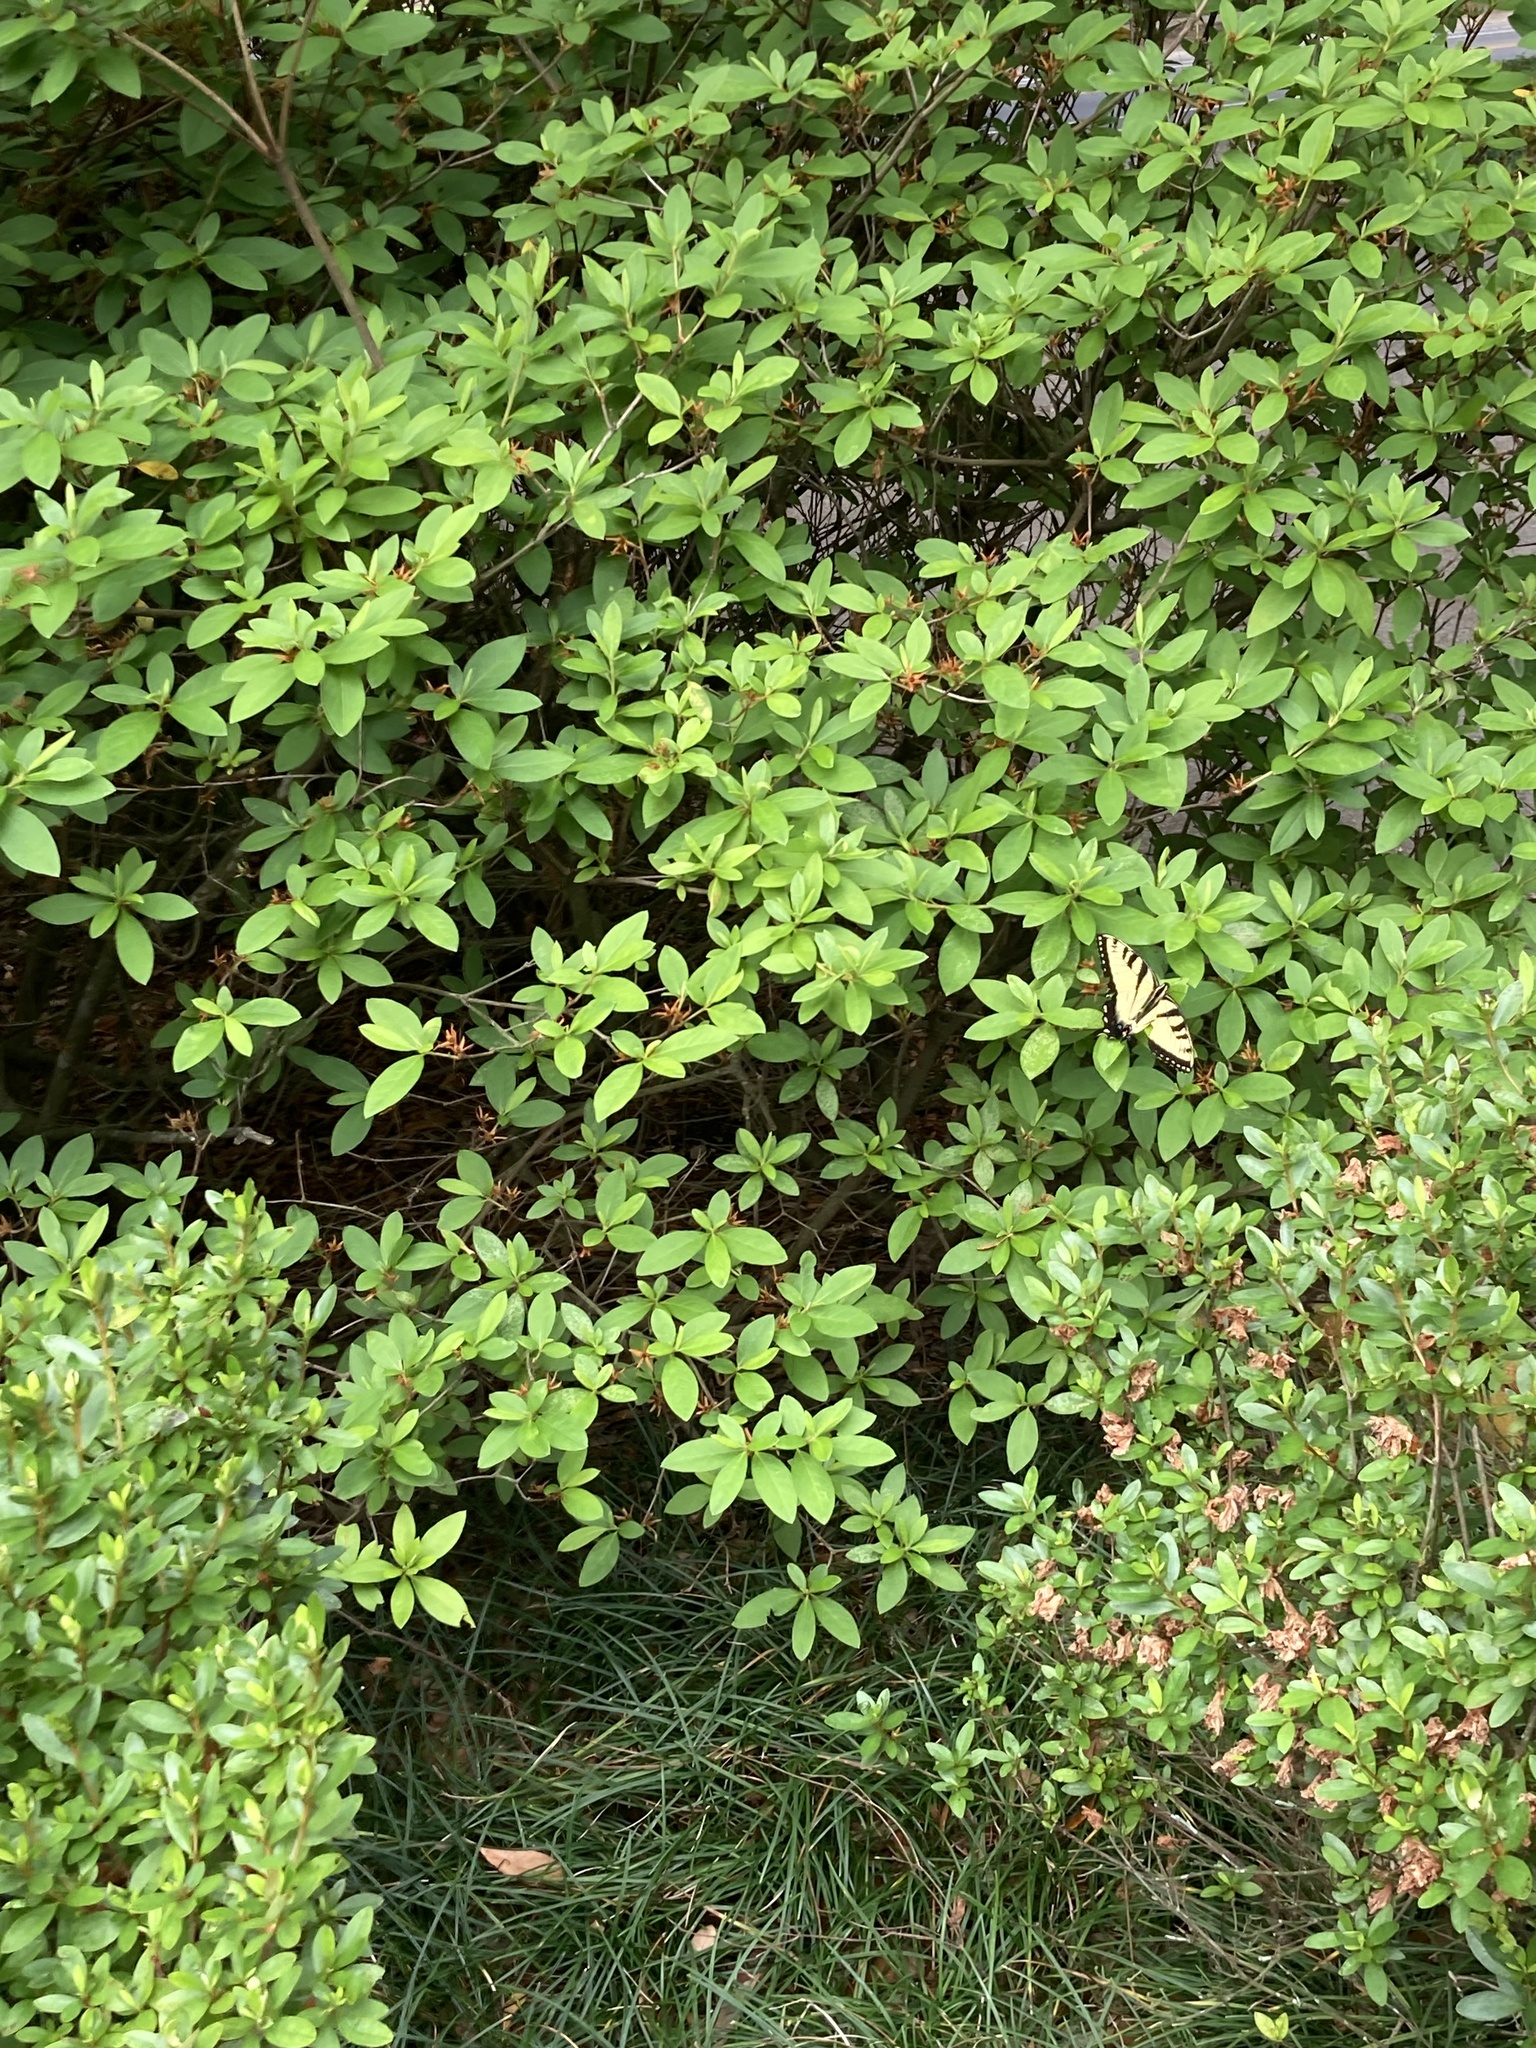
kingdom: Animalia
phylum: Arthropoda
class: Insecta
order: Lepidoptera
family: Papilionidae
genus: Papilio
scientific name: Papilio glaucus
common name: Tiger swallowtail
